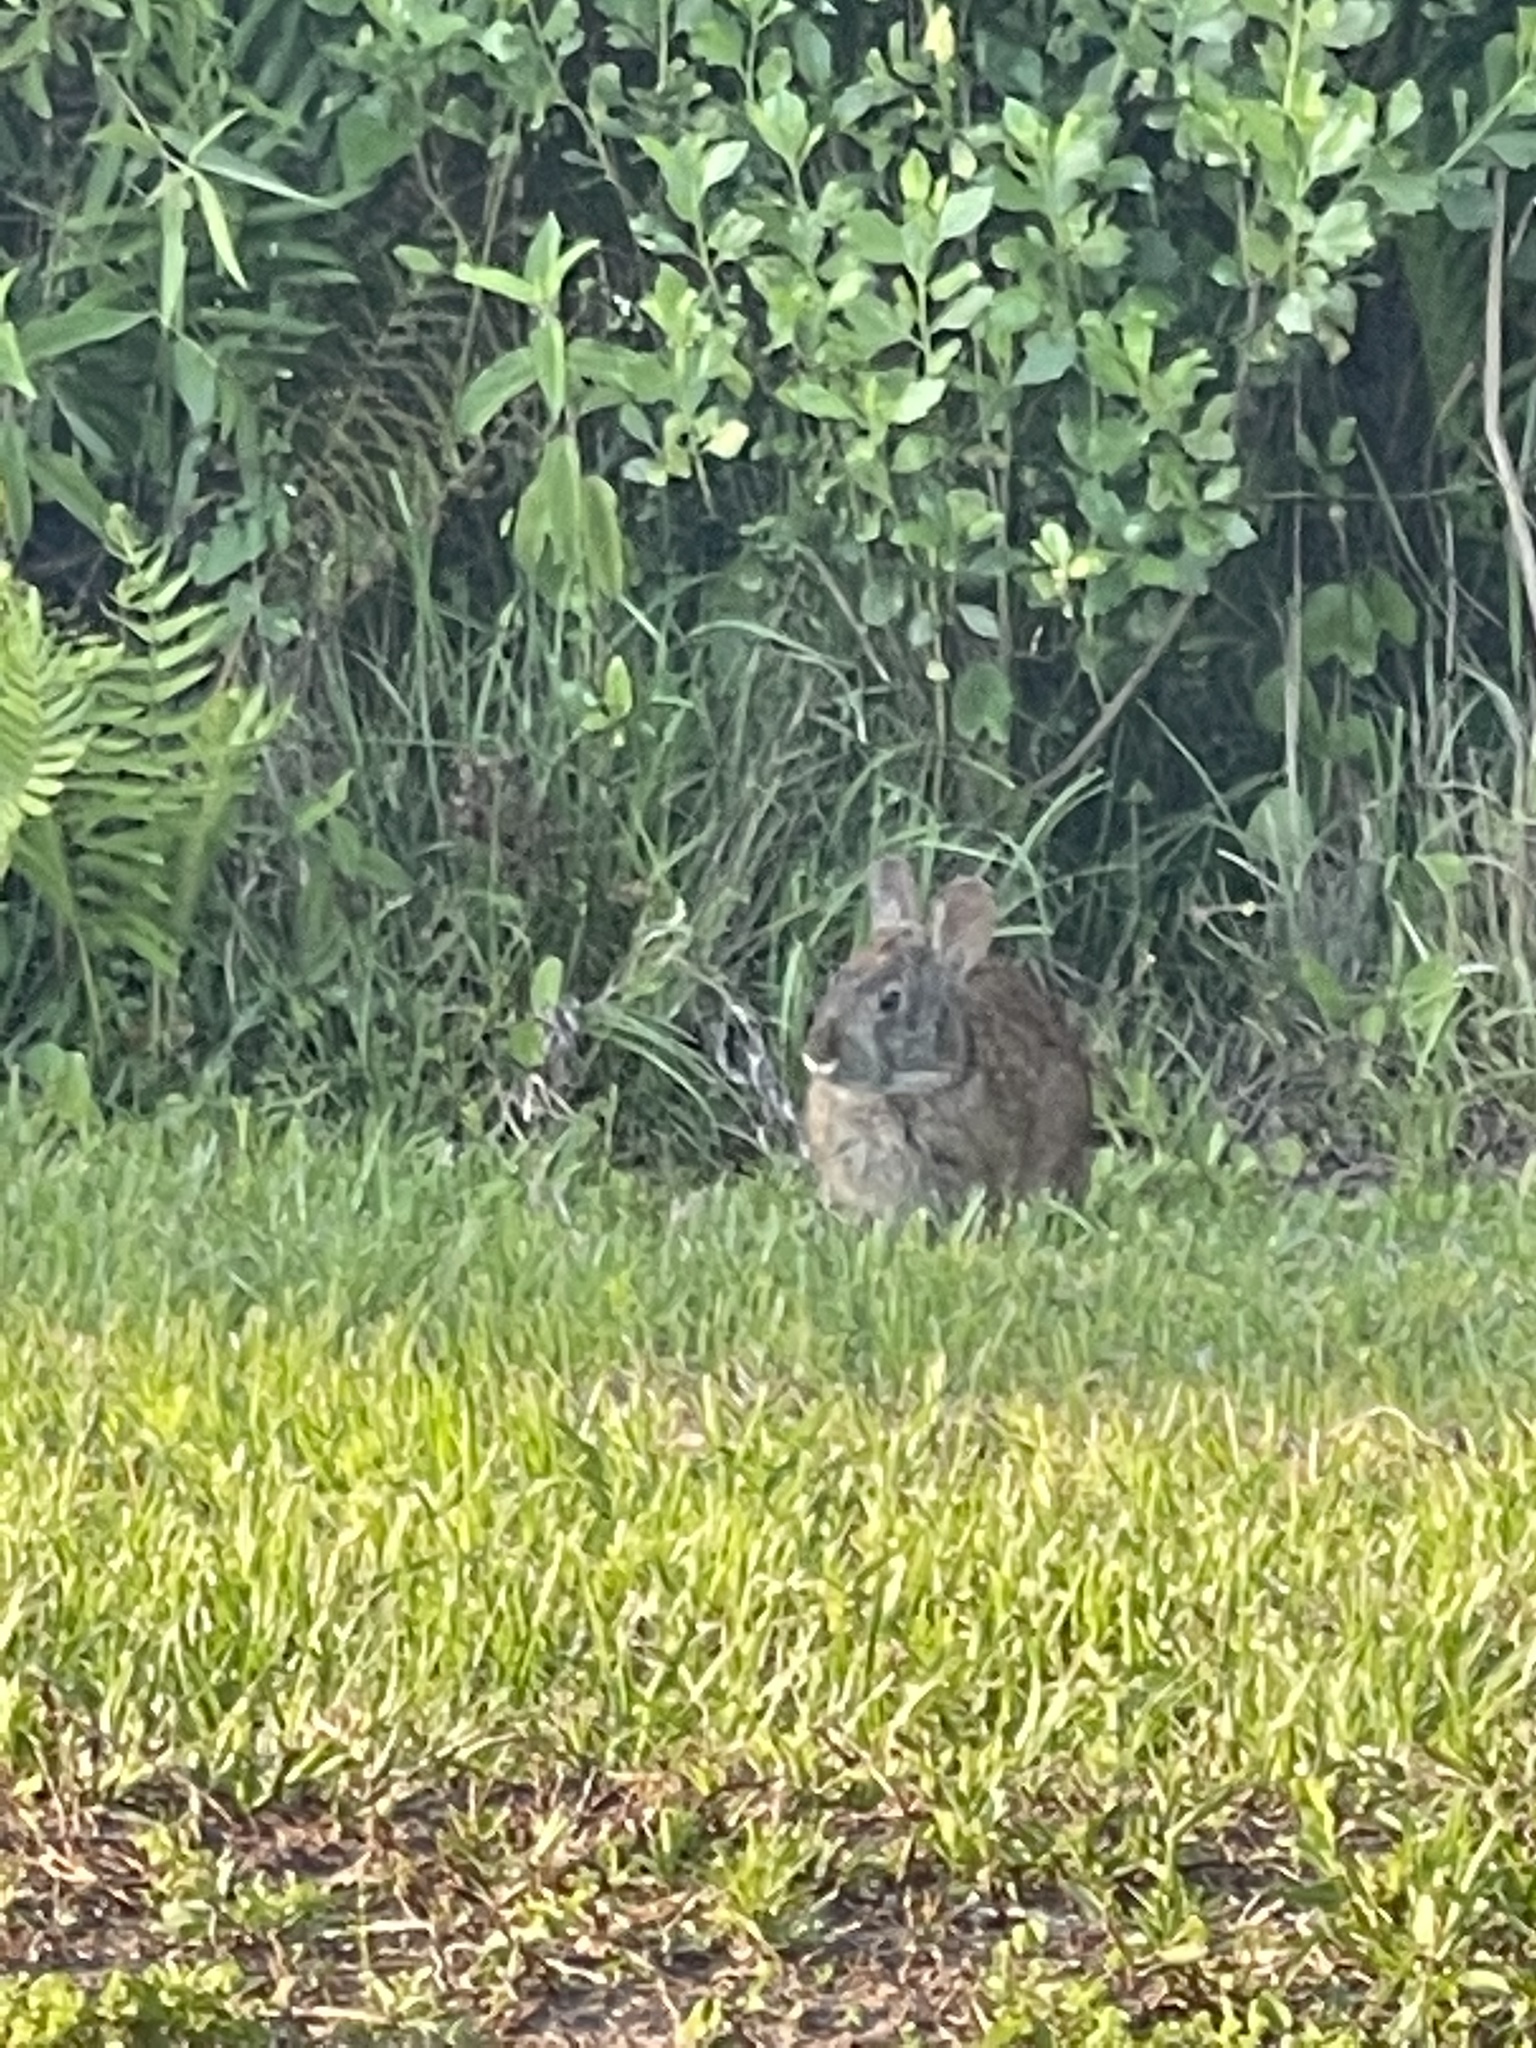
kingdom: Animalia
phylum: Chordata
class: Mammalia
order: Lagomorpha
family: Leporidae
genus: Sylvilagus
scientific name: Sylvilagus palustris
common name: Marsh rabbit
